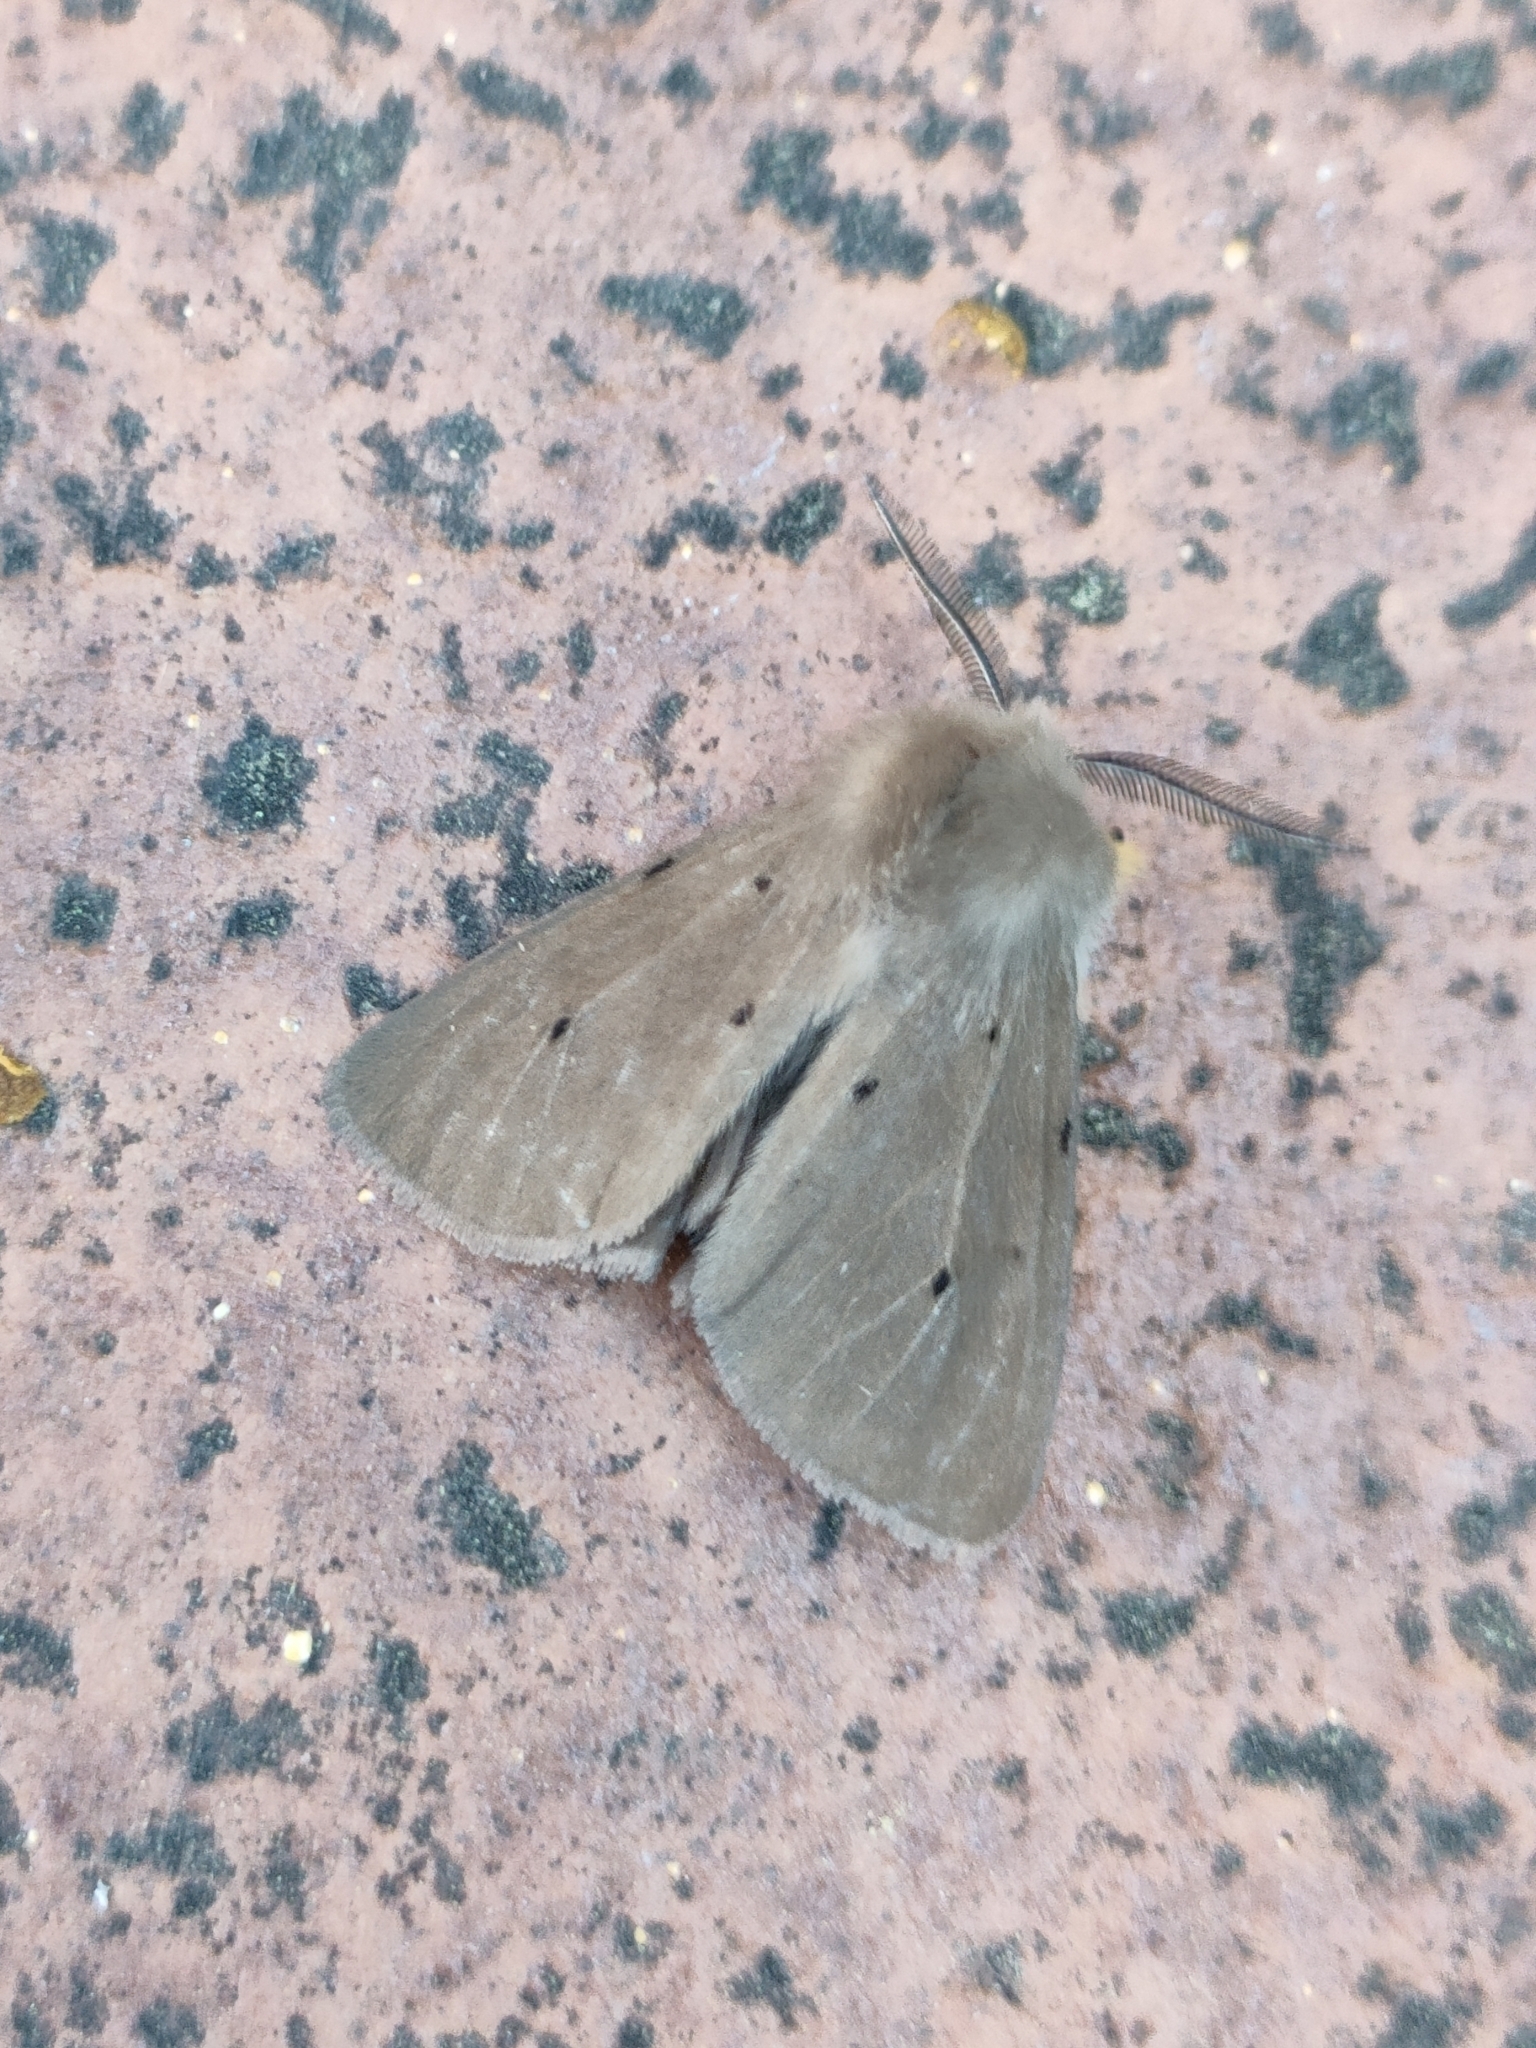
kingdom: Animalia
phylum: Arthropoda
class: Insecta
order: Lepidoptera
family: Erebidae
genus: Diaphora
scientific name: Diaphora mendica
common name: Muslin moth
